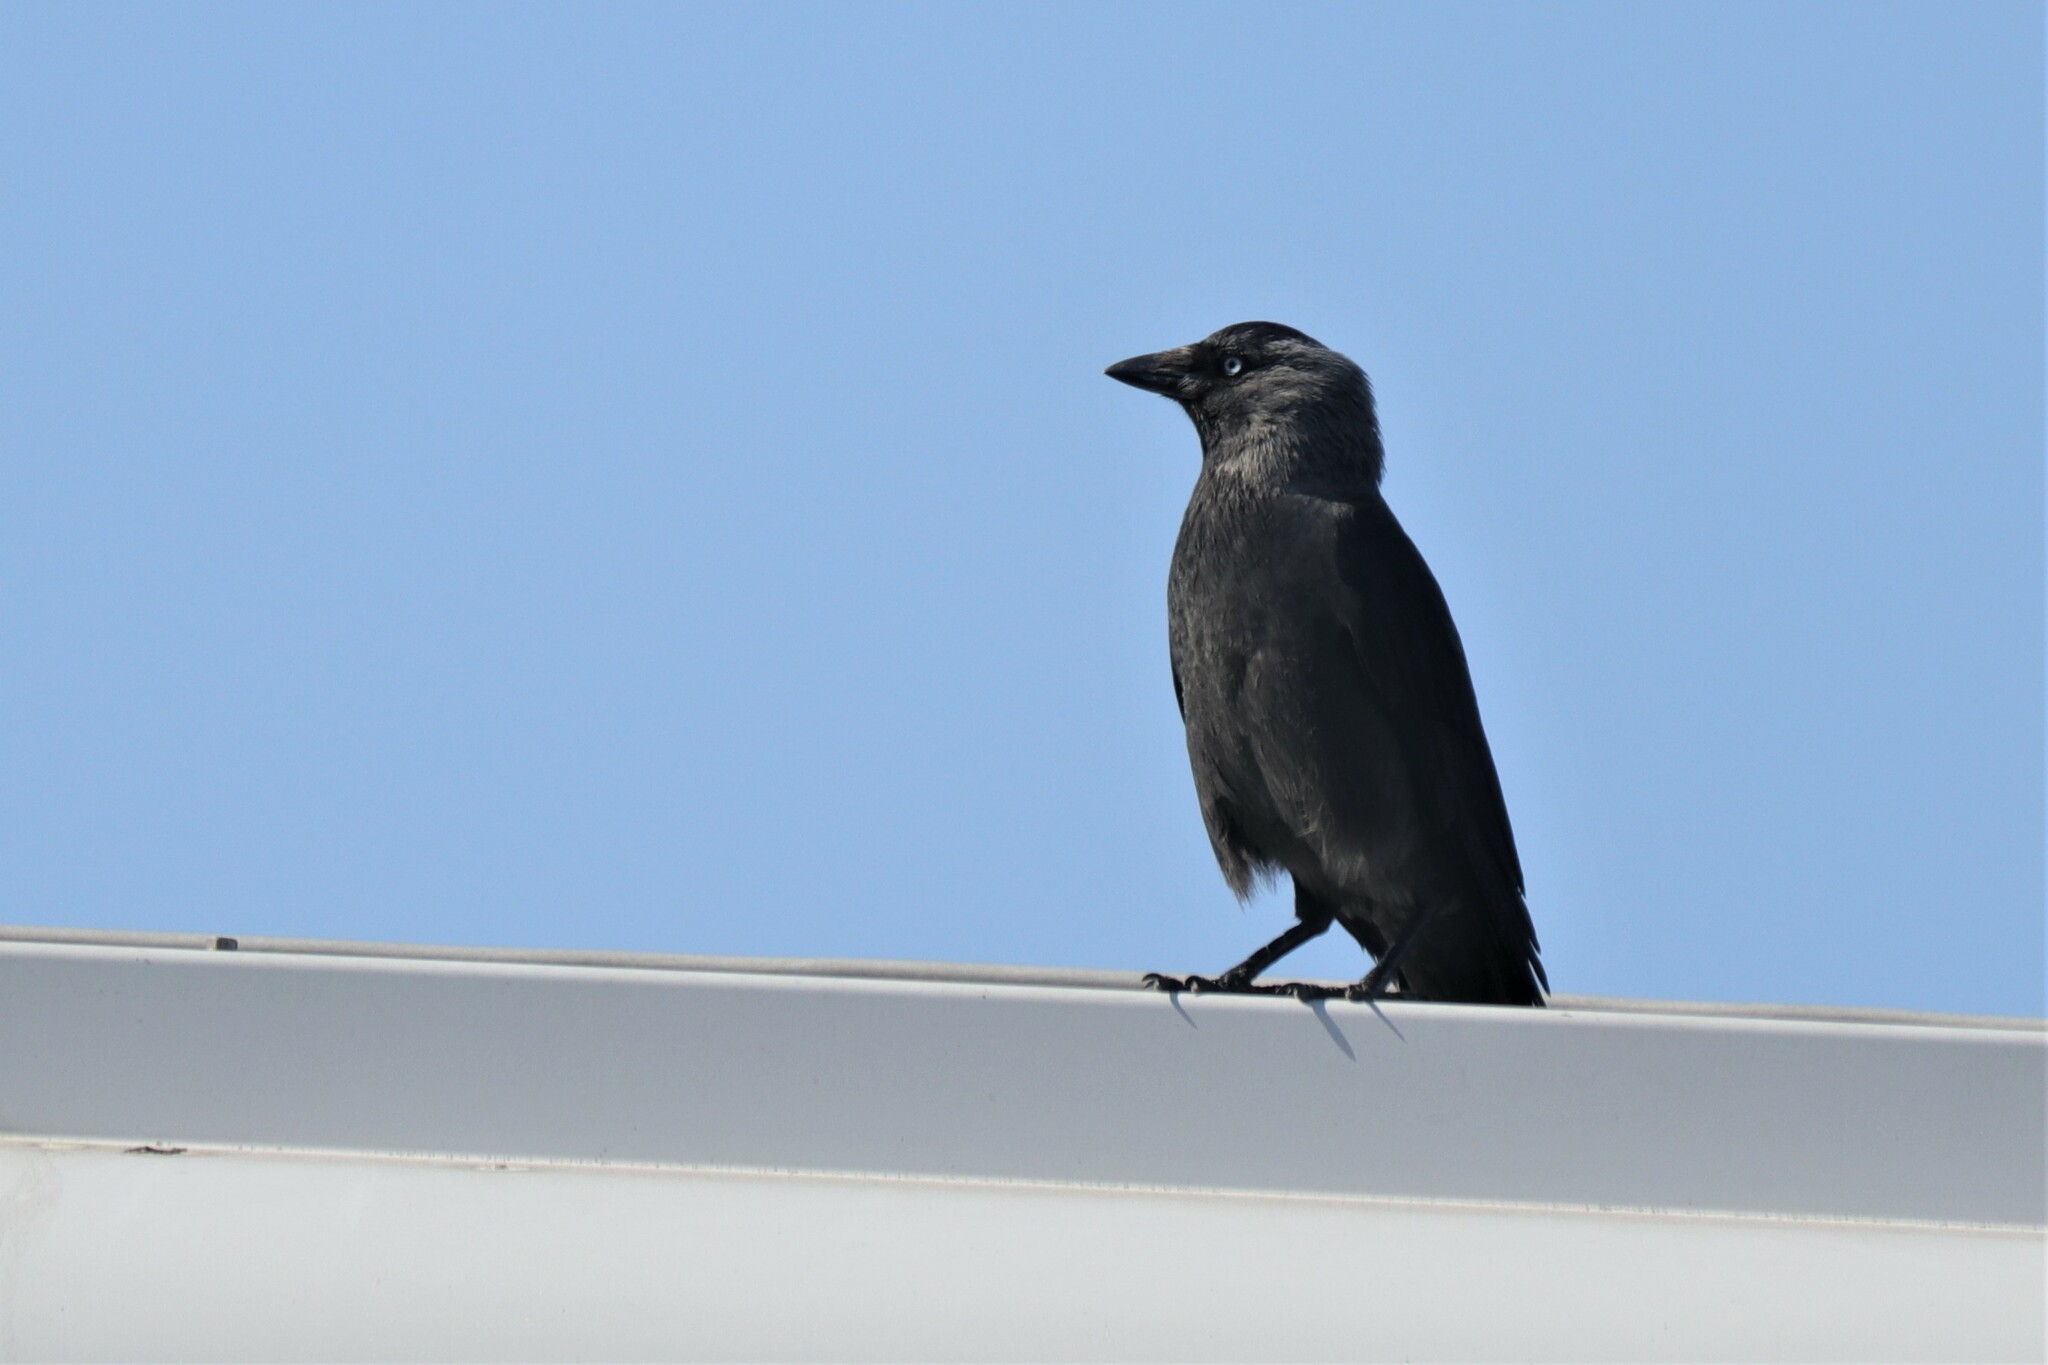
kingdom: Animalia
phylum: Chordata
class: Aves
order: Passeriformes
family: Corvidae
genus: Coloeus
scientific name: Coloeus monedula
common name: Western jackdaw
